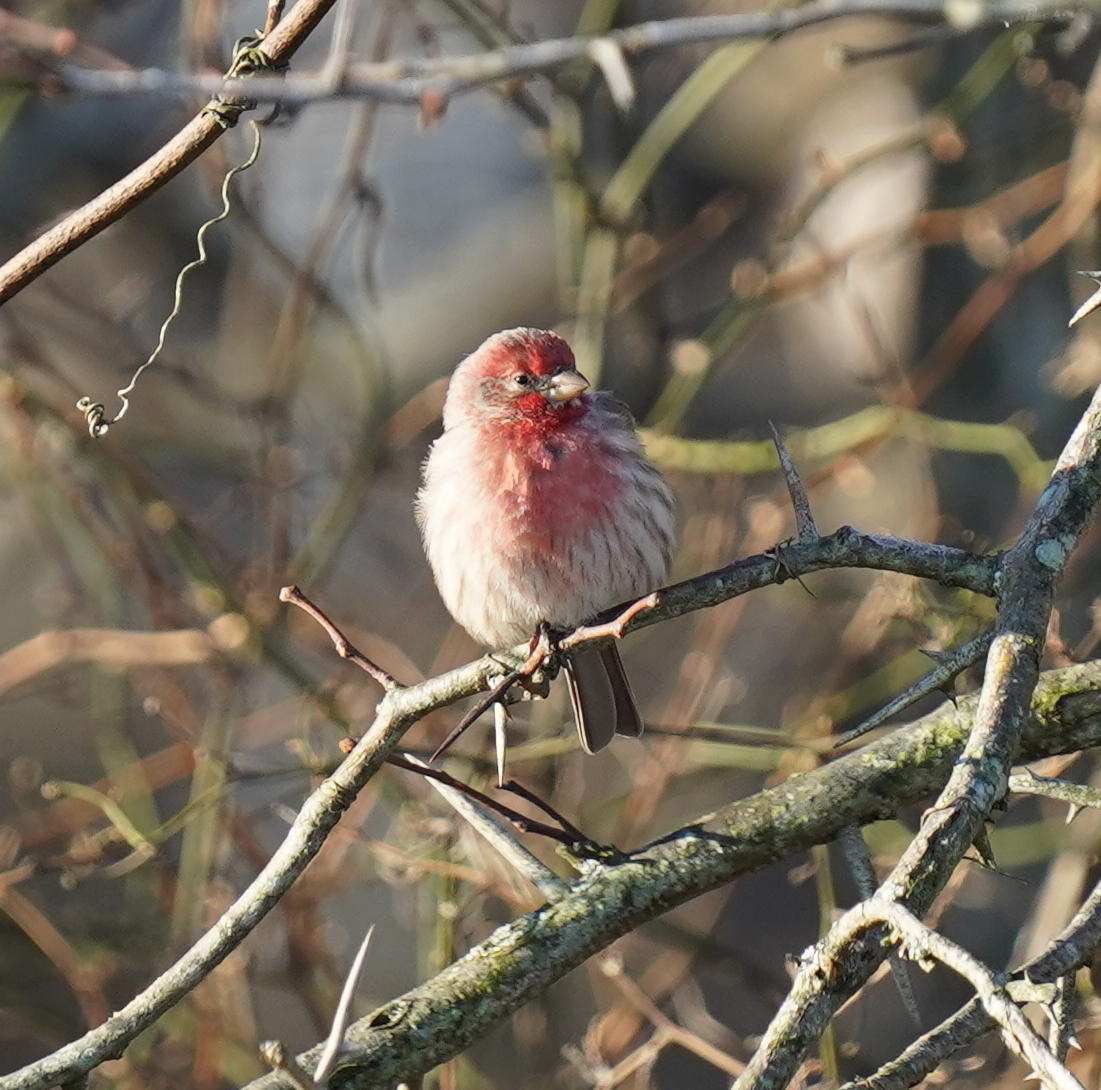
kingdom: Animalia
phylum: Chordata
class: Aves
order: Passeriformes
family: Fringillidae
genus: Haemorhous
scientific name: Haemorhous mexicanus
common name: House finch
